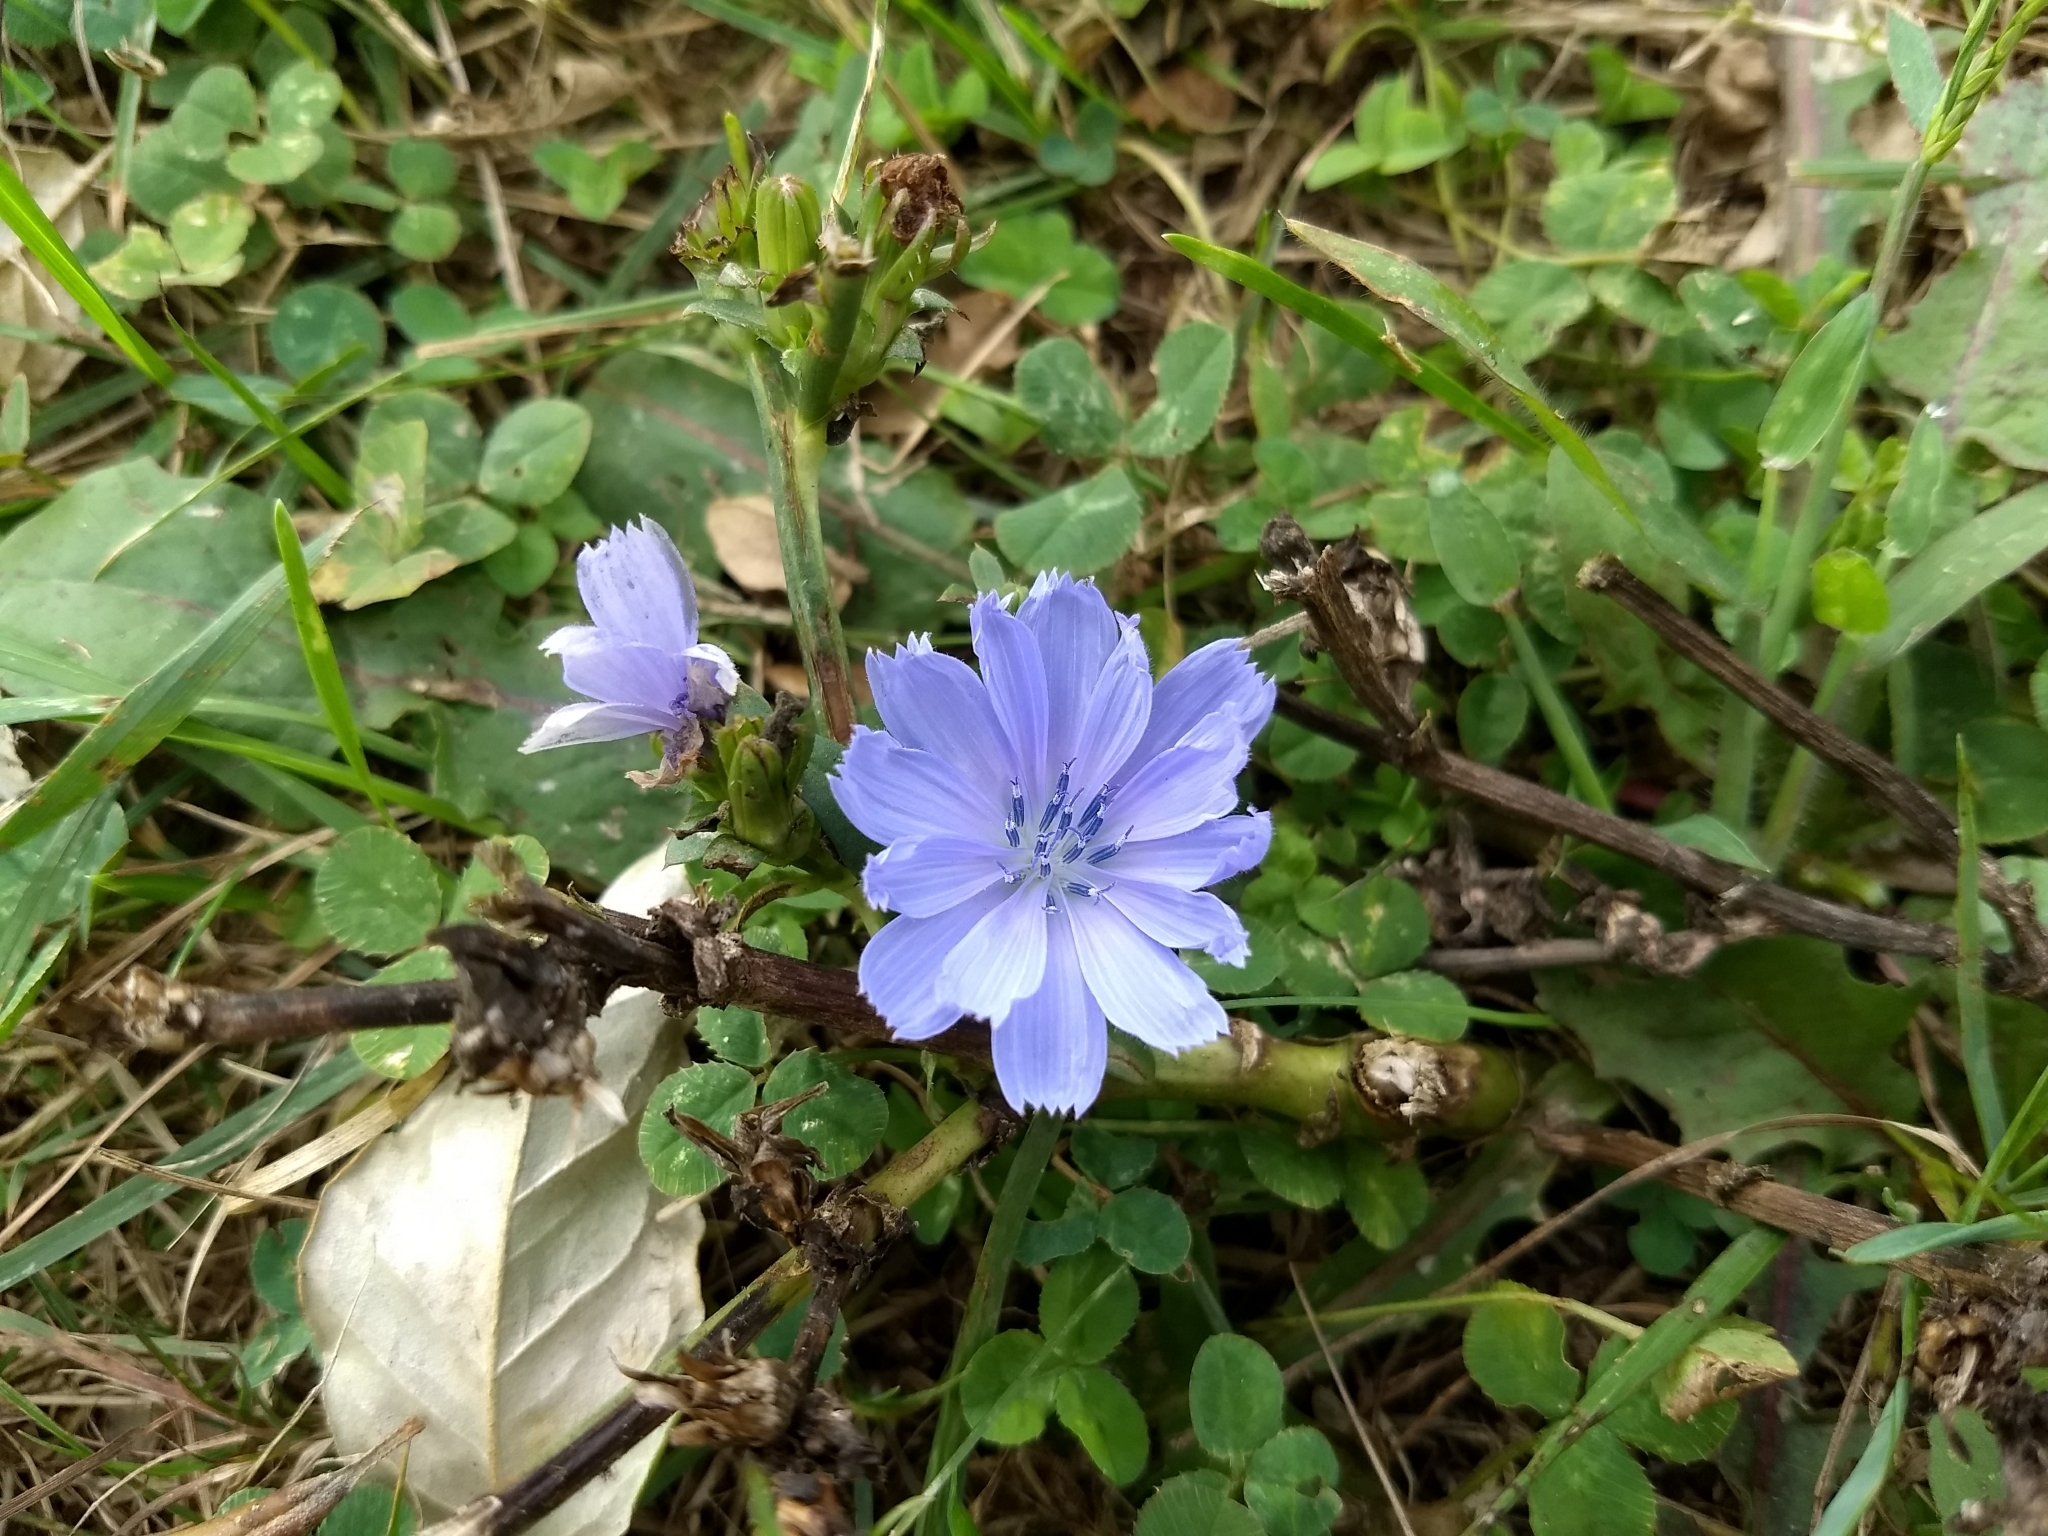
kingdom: Plantae
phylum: Tracheophyta
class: Magnoliopsida
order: Asterales
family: Asteraceae
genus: Cichorium
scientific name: Cichorium intybus
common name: Chicory
